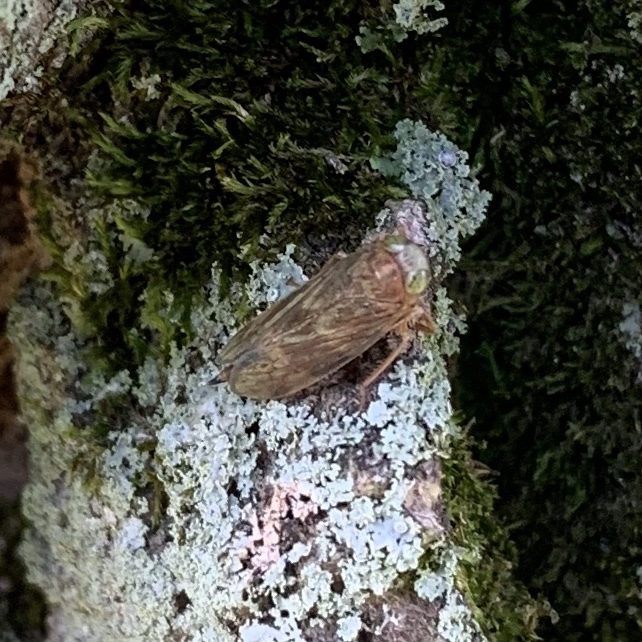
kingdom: Animalia
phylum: Arthropoda
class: Insecta
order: Hemiptera
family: Cicadellidae
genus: Jikradia
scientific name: Jikradia olitoria
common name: Coppery leafhopper
